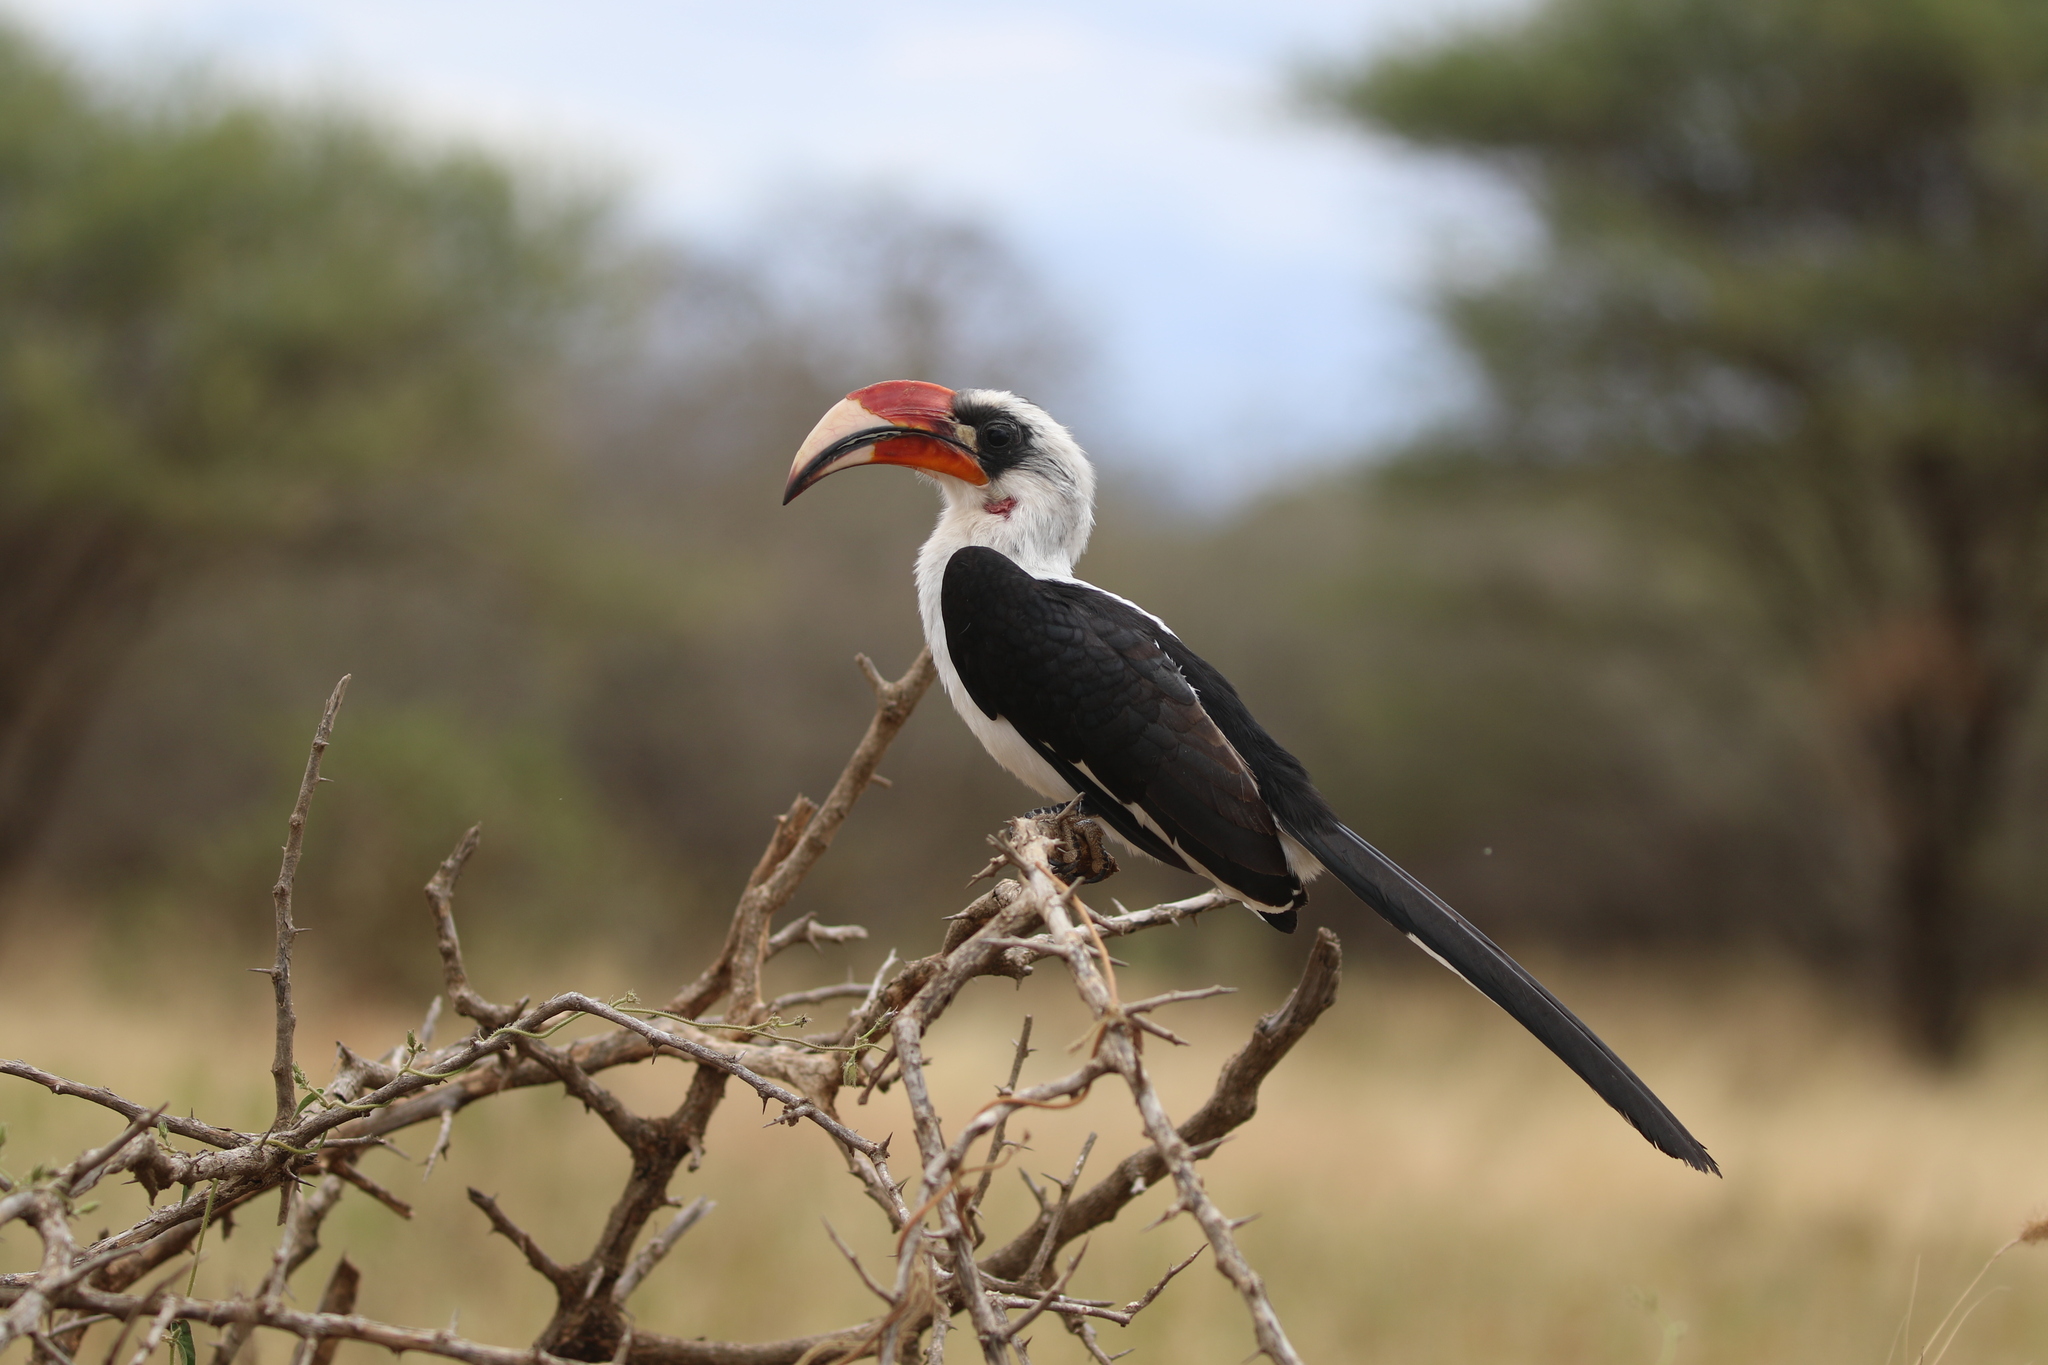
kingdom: Animalia
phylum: Chordata
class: Aves
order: Bucerotiformes
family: Bucerotidae
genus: Tockus
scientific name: Tockus deckeni
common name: Von der decken's hornbill
